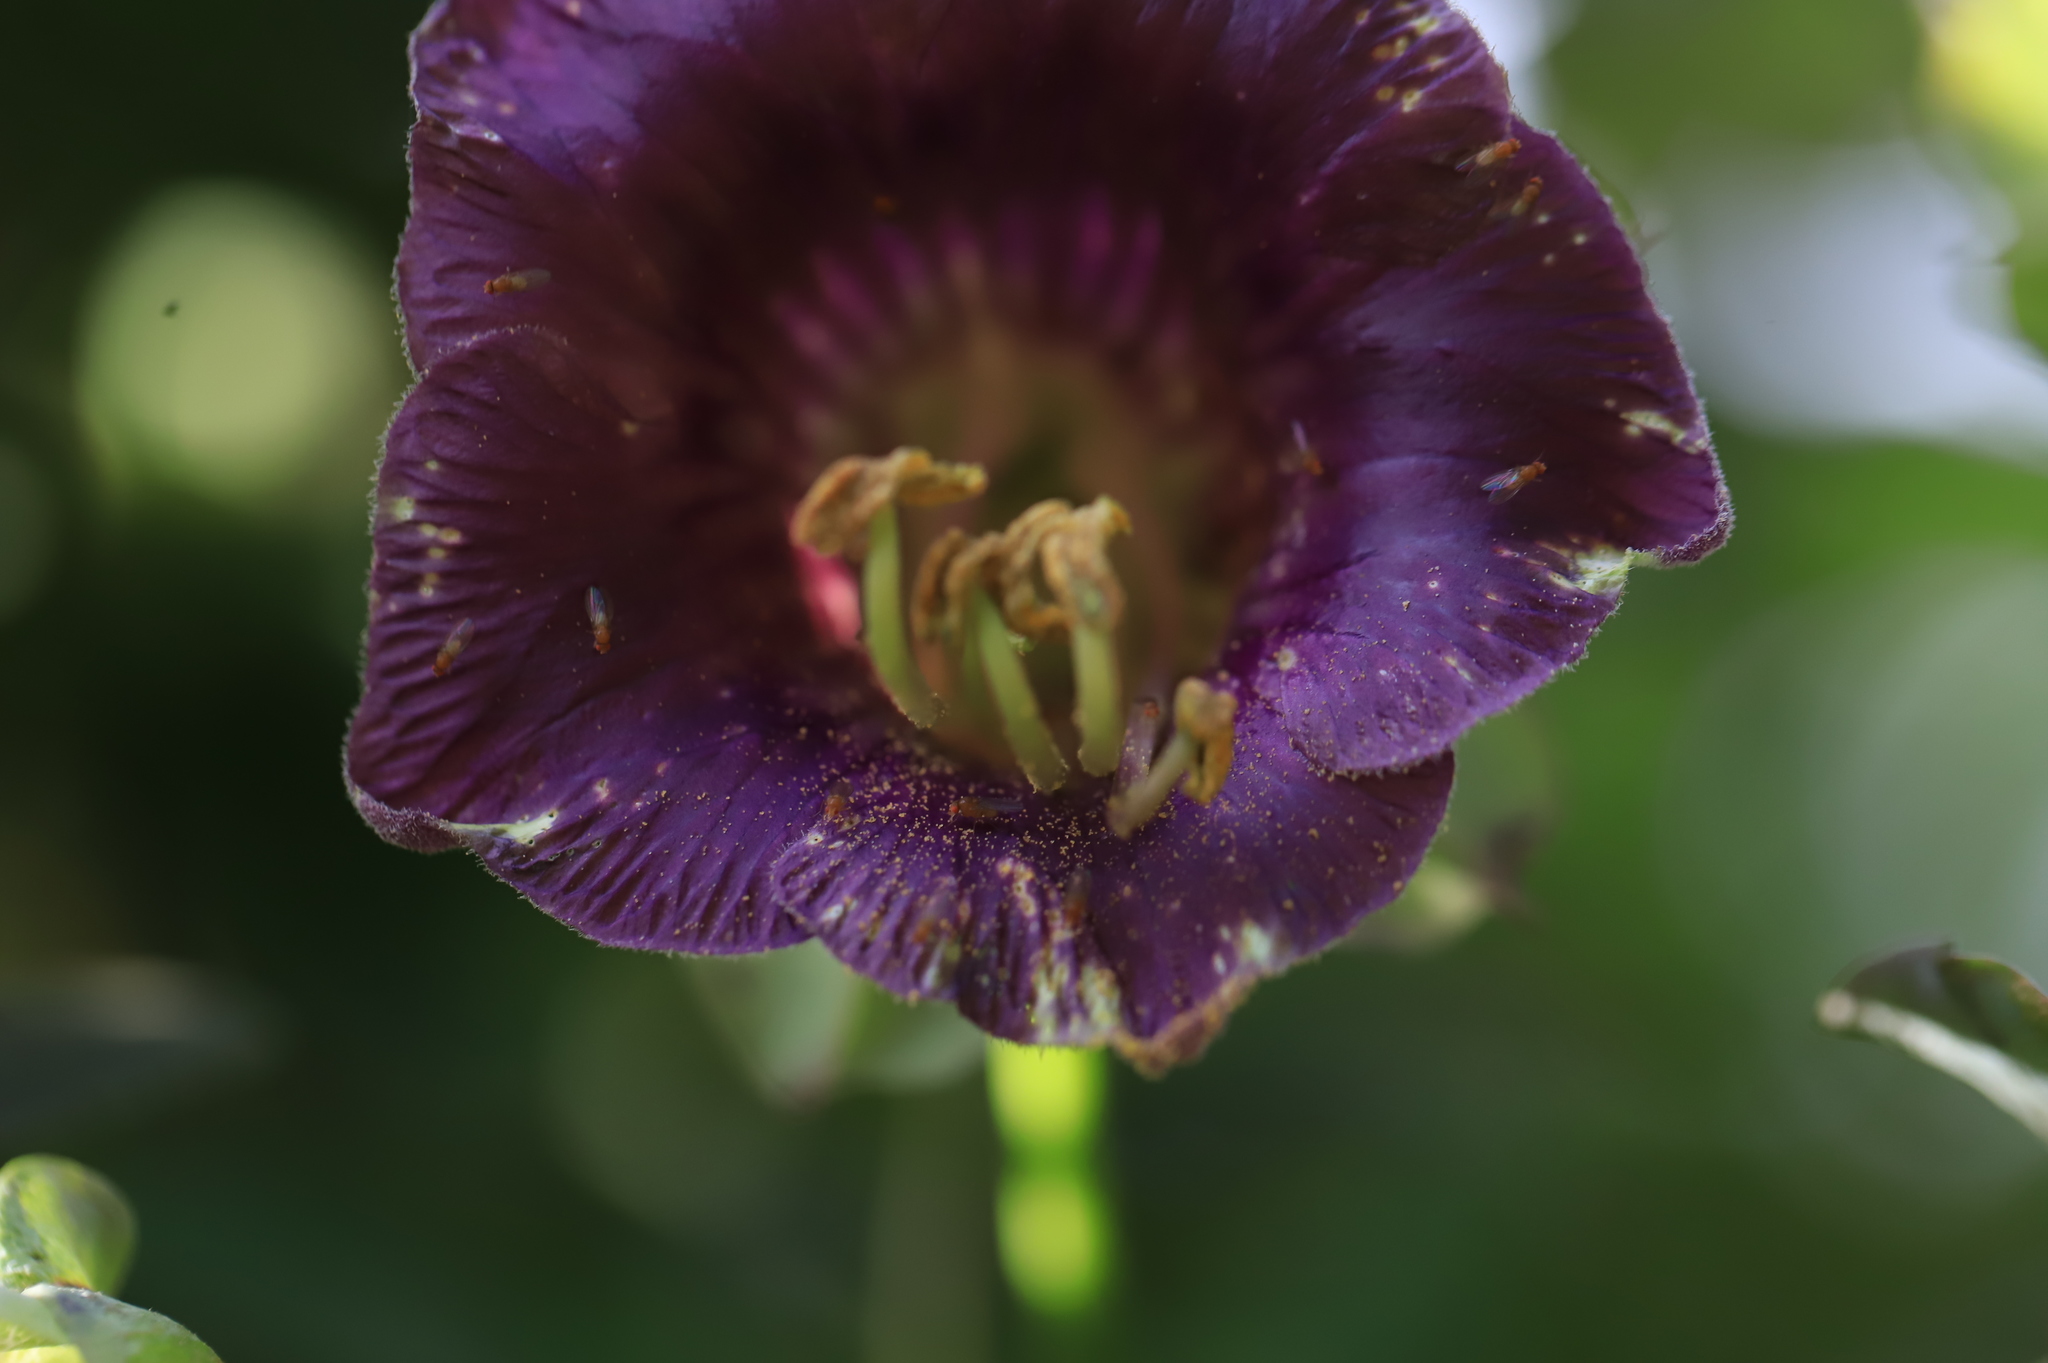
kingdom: Plantae
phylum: Tracheophyta
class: Magnoliopsida
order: Ericales
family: Polemoniaceae
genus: Cobaea
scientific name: Cobaea scandens
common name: Cup-and-saucer-vine
